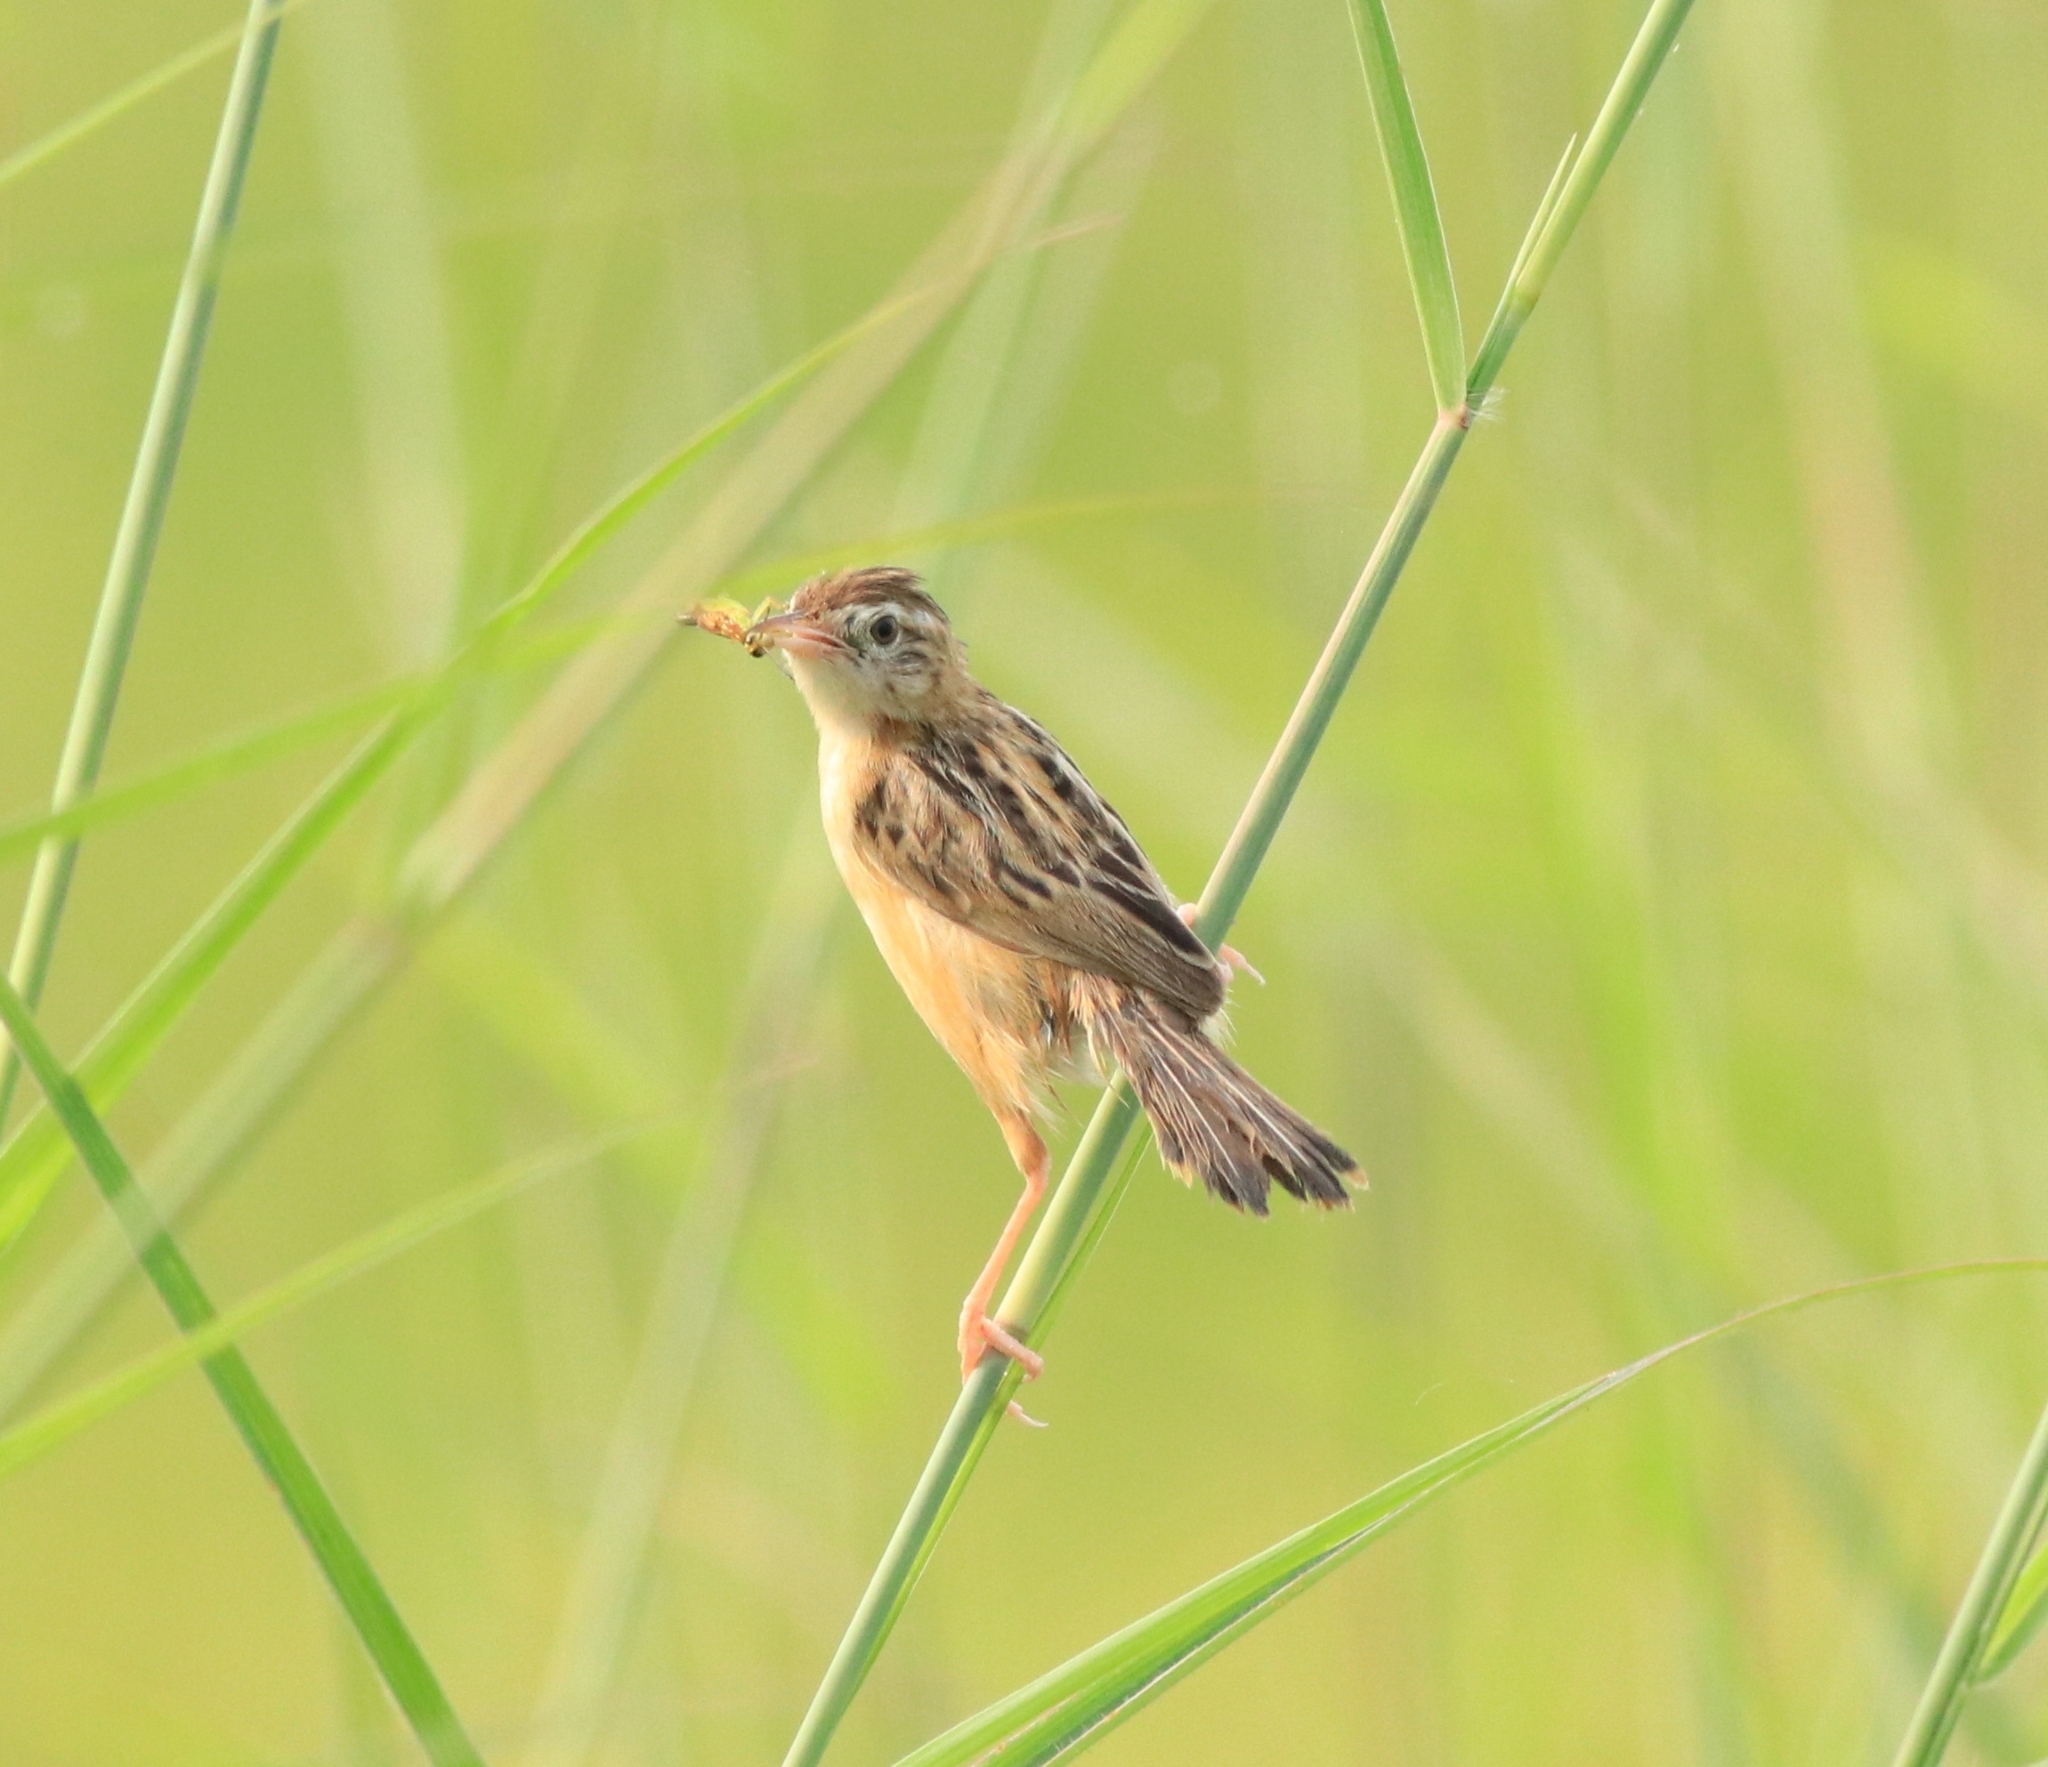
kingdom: Animalia
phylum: Chordata
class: Aves
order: Passeriformes
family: Cisticolidae
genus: Cisticola
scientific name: Cisticola juncidis
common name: Zitting cisticola
